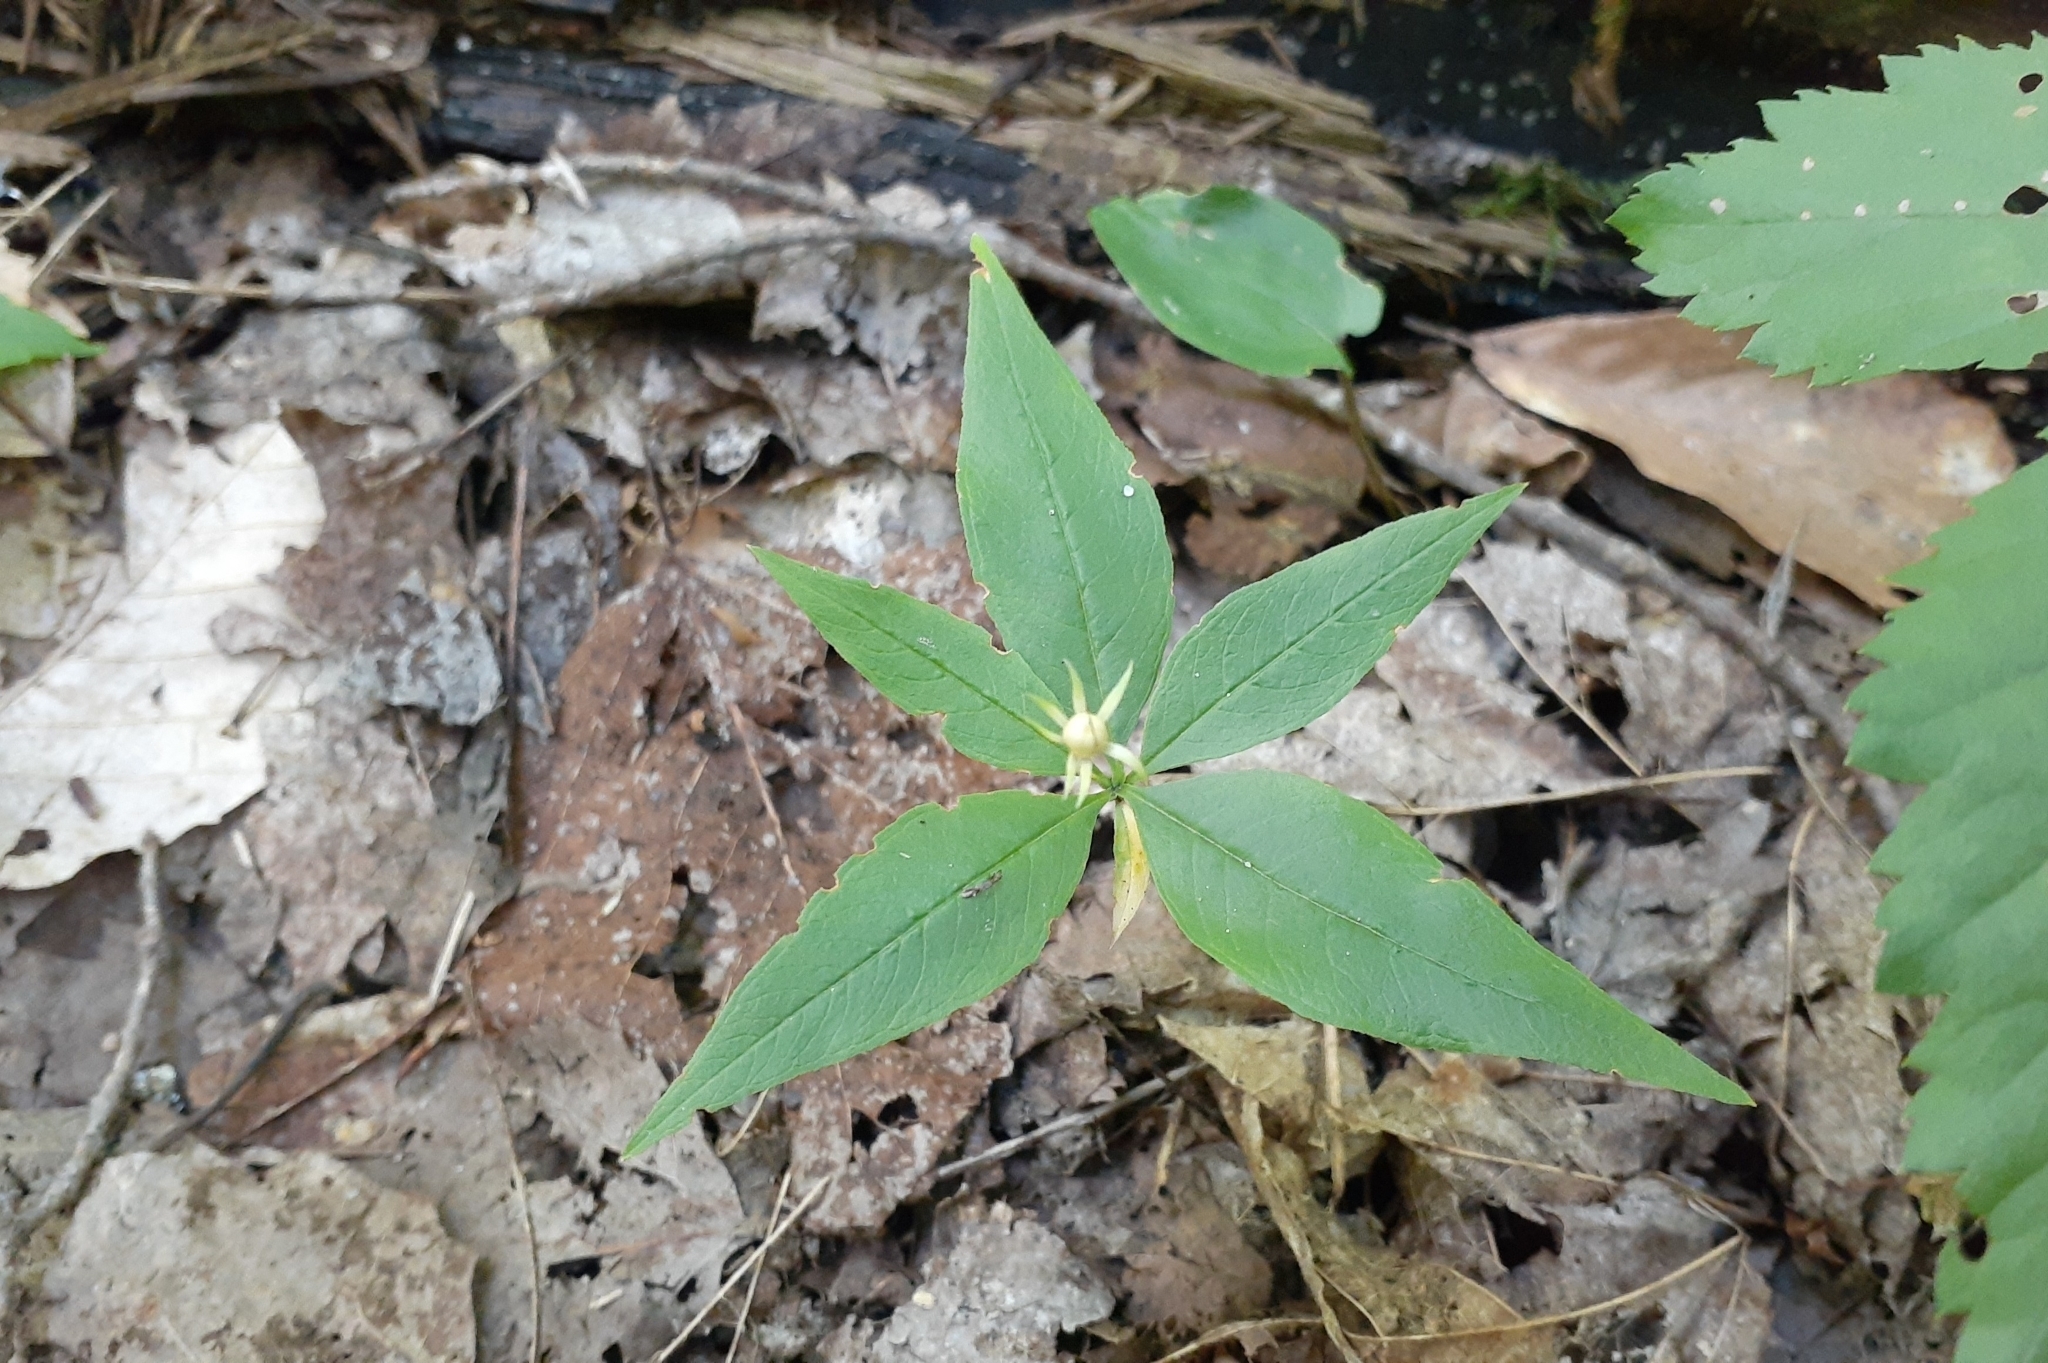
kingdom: Plantae
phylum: Tracheophyta
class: Magnoliopsida
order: Ericales
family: Primulaceae
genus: Lysimachia
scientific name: Lysimachia borealis
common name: American starflower
